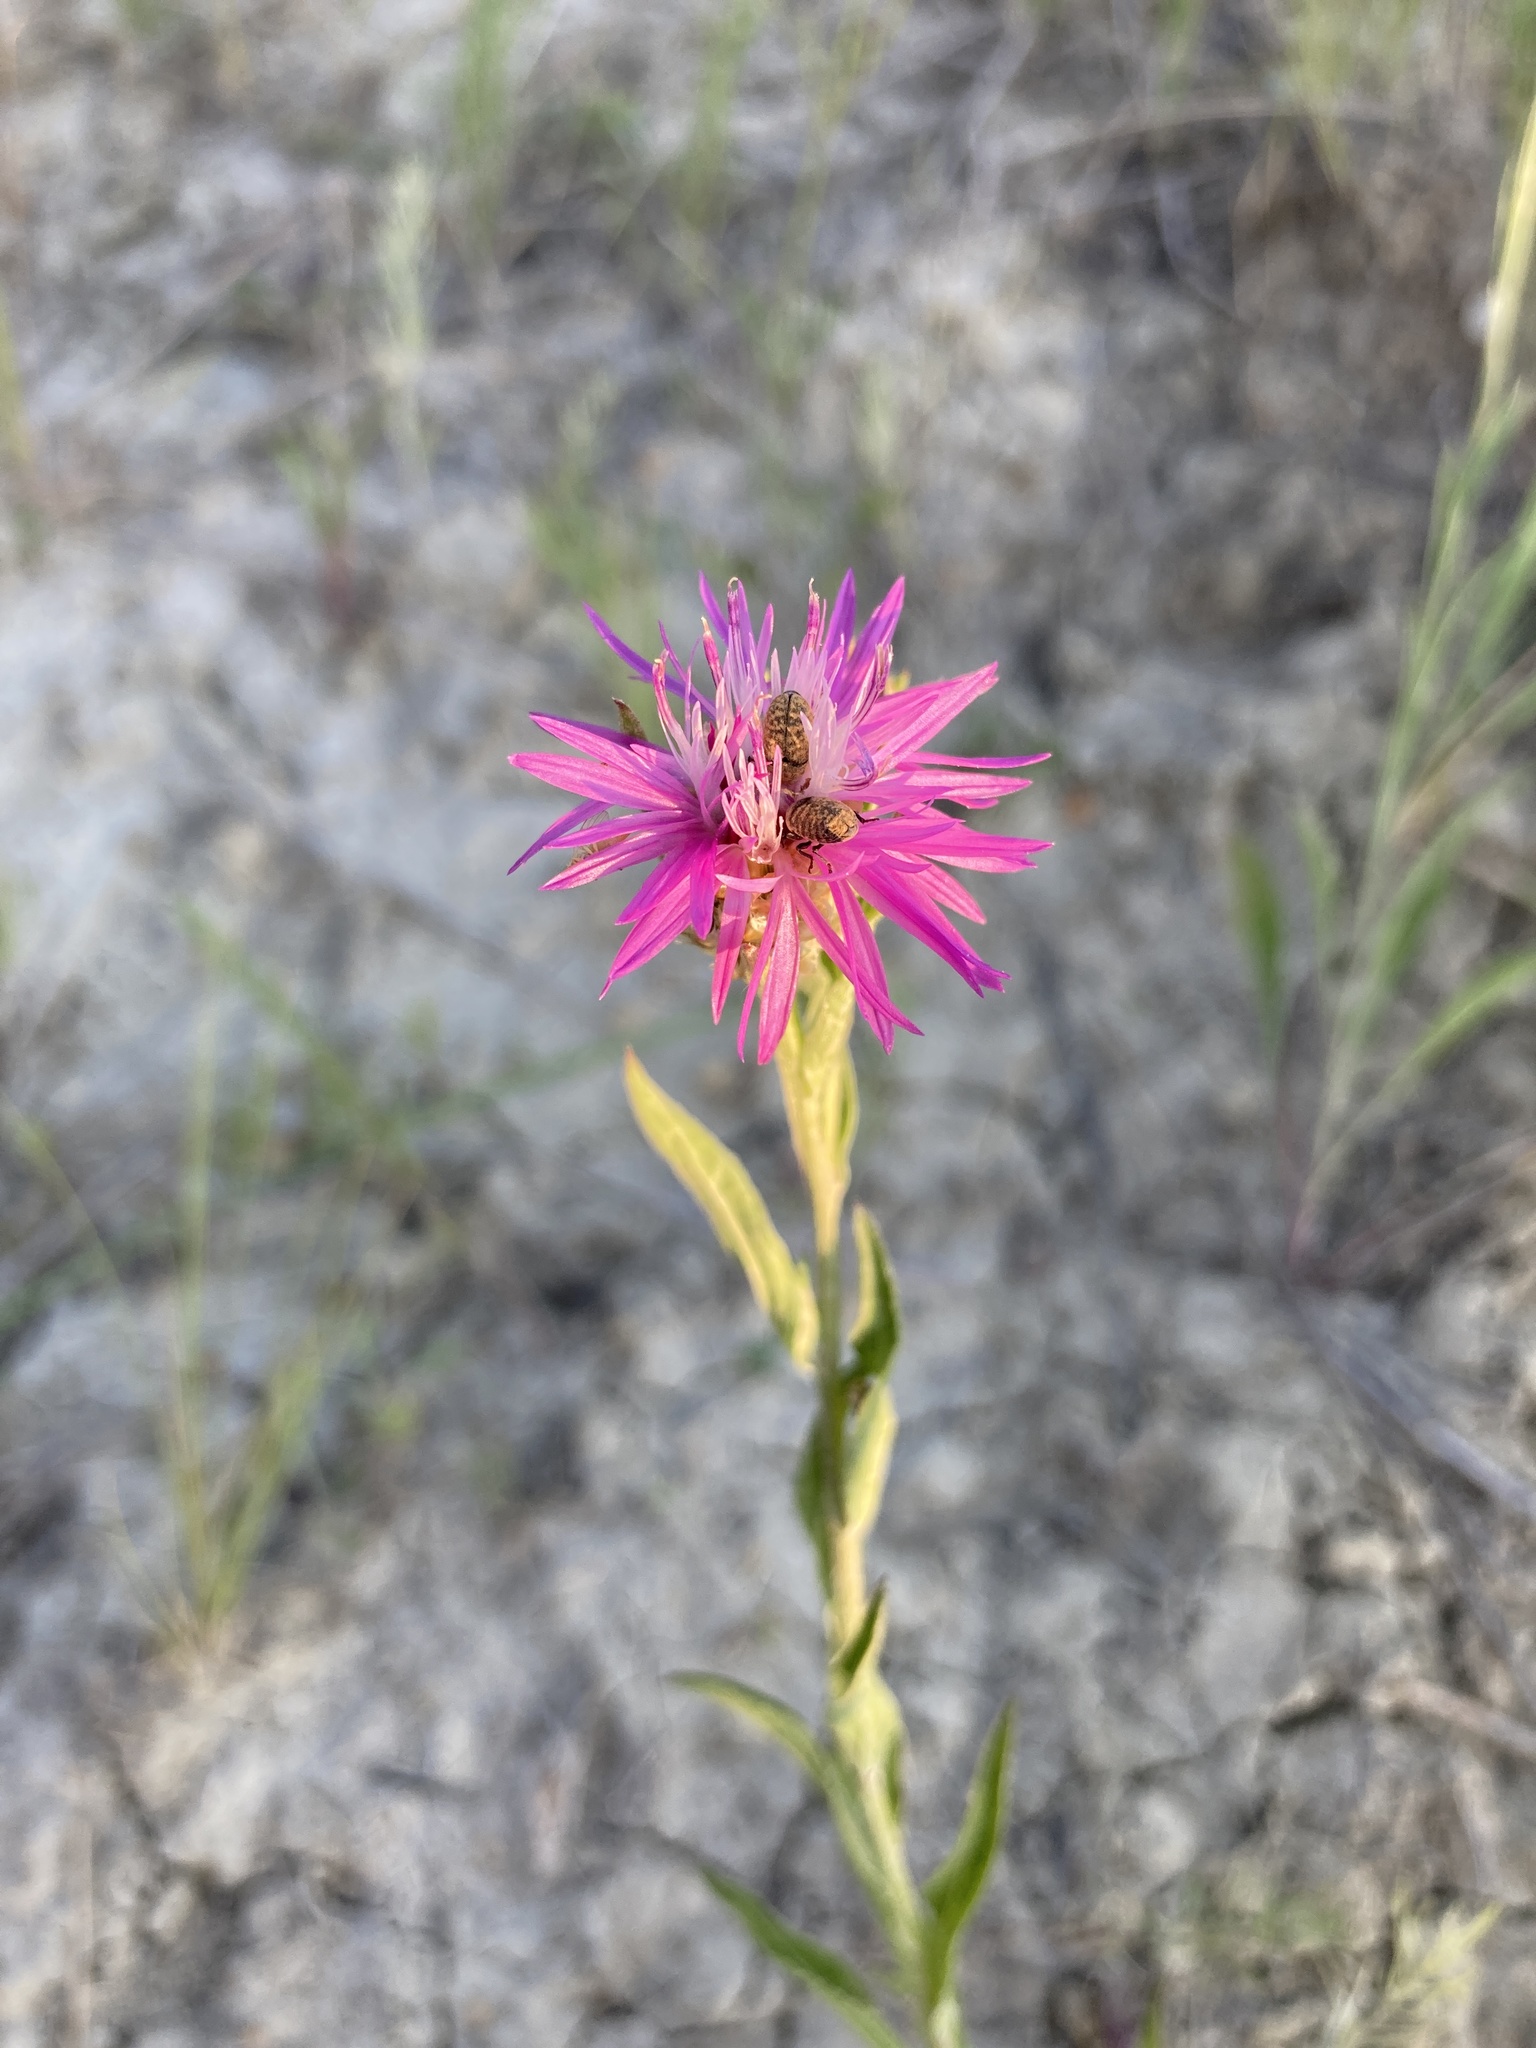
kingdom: Plantae
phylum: Tracheophyta
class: Magnoliopsida
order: Asterales
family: Asteraceae
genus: Centaurea
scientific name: Centaurea jacea
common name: Brown knapweed
